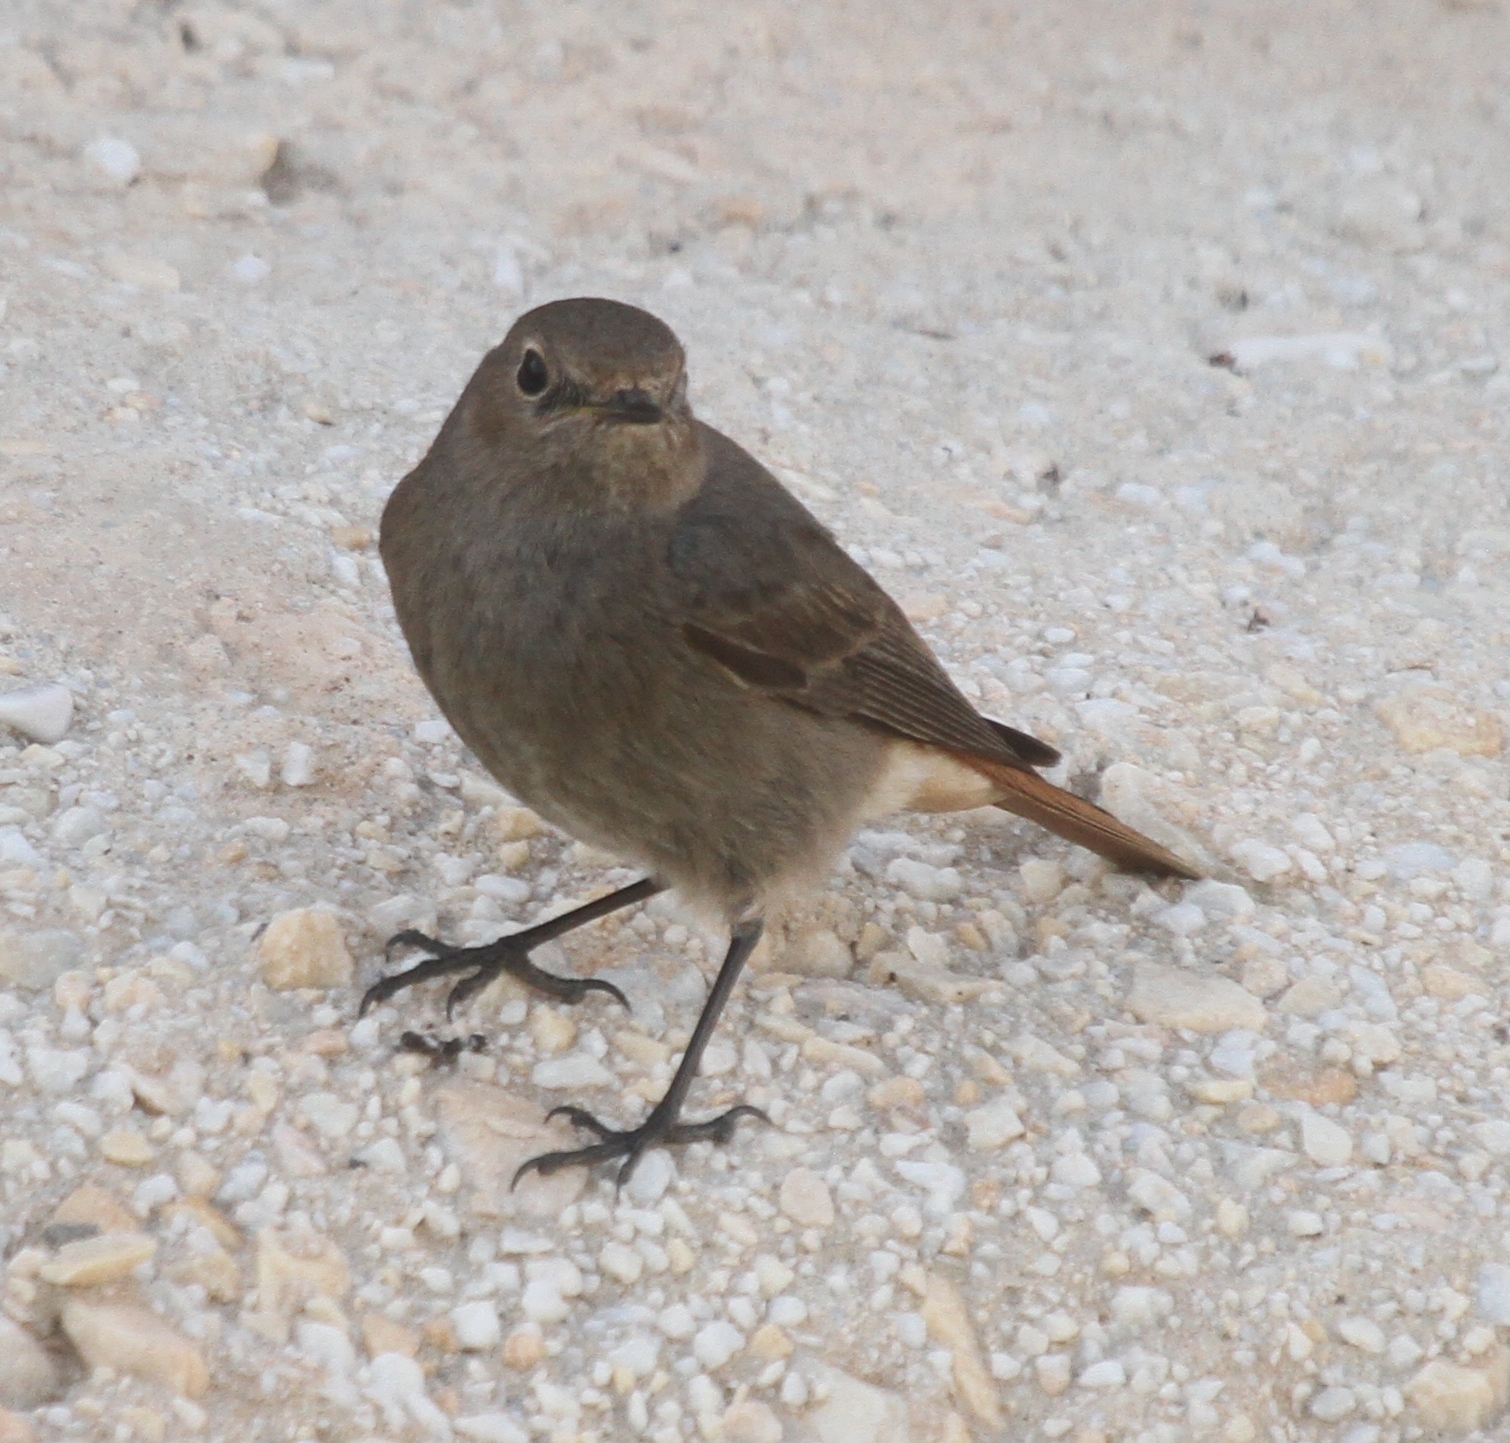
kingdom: Animalia
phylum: Chordata
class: Aves
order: Passeriformes
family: Muscicapidae
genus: Phoenicurus
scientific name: Phoenicurus ochruros
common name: Black redstart
